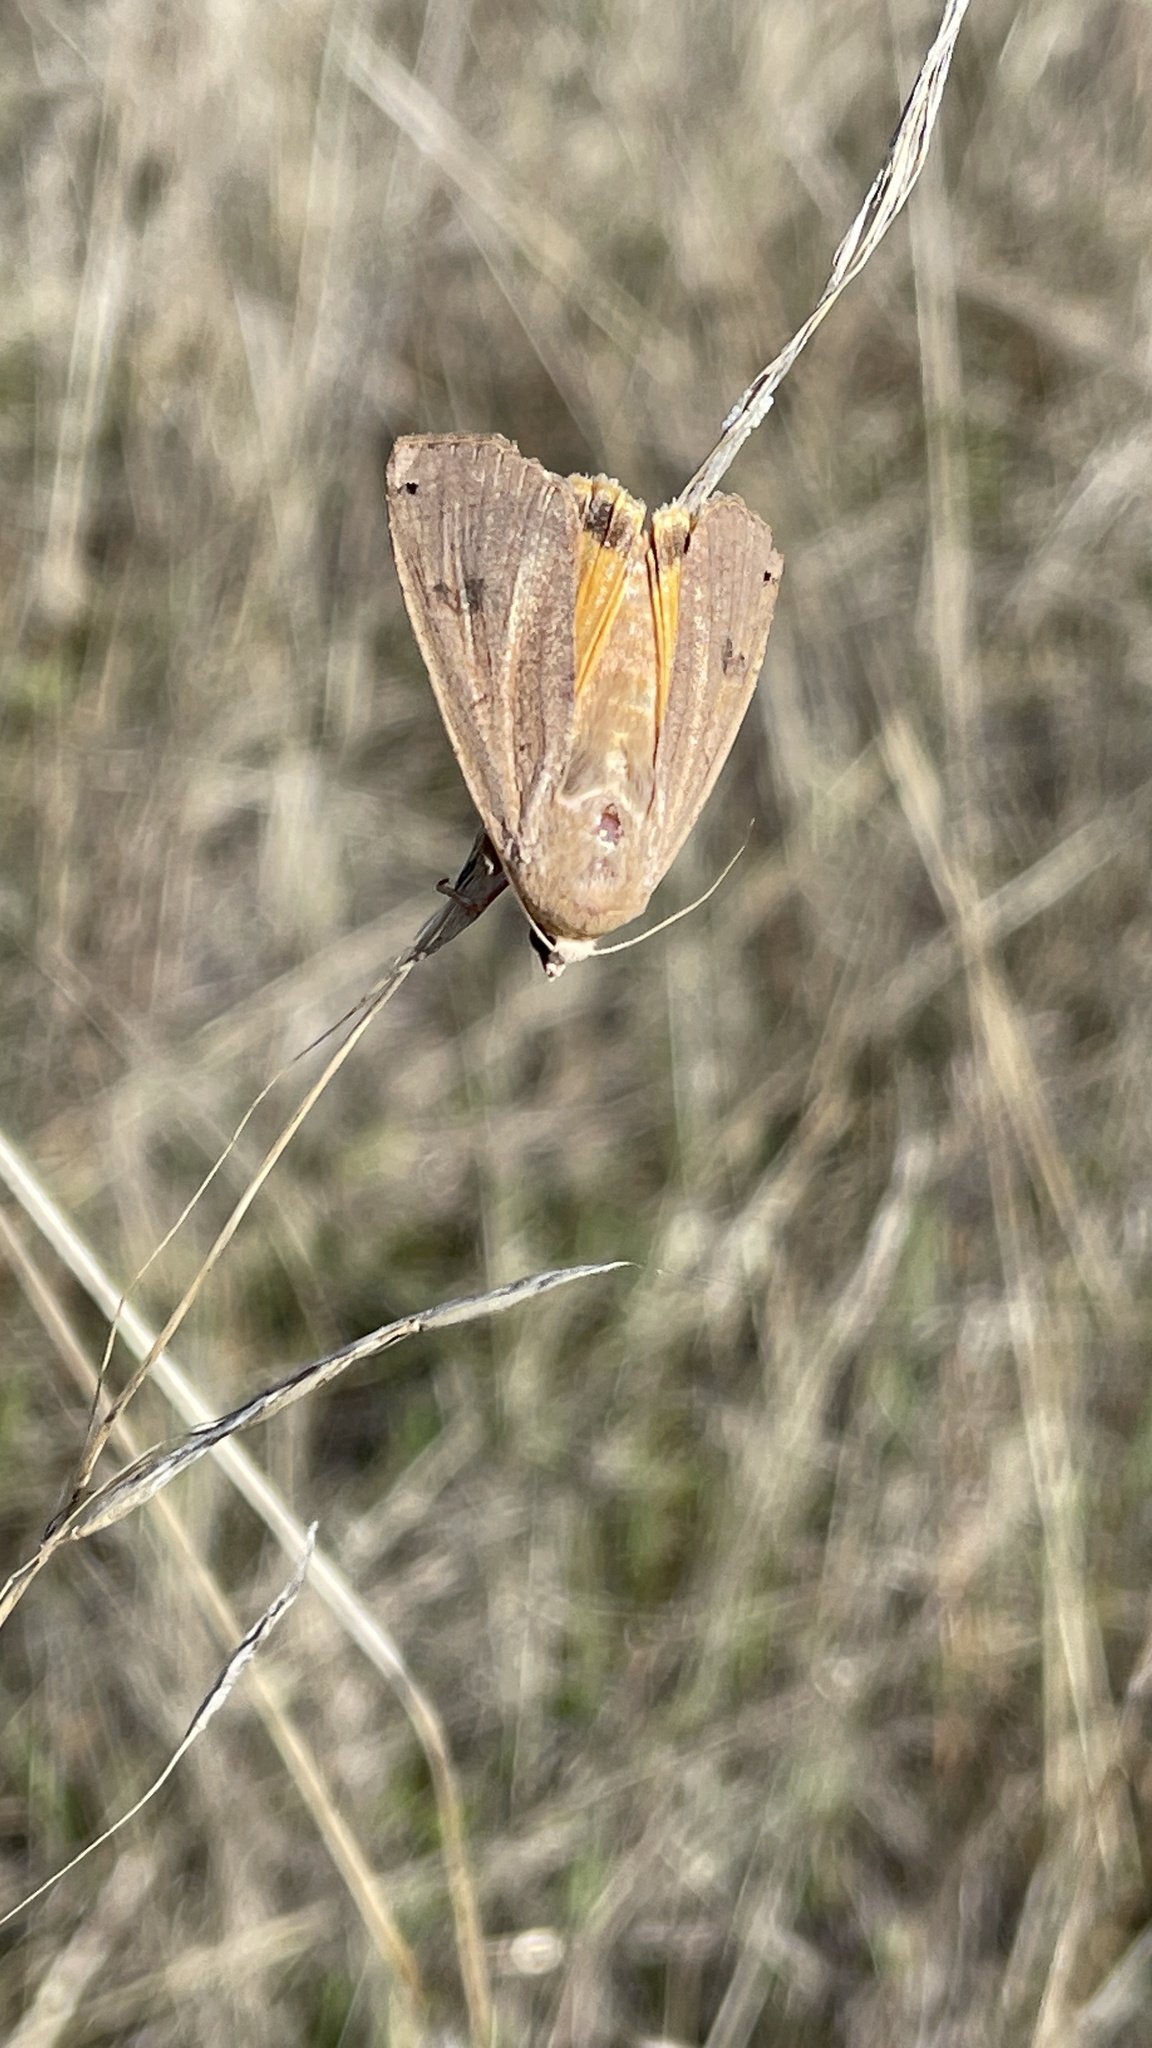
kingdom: Animalia
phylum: Arthropoda
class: Insecta
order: Lepidoptera
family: Noctuidae
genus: Noctua
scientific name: Noctua pronuba
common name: Large yellow underwing
